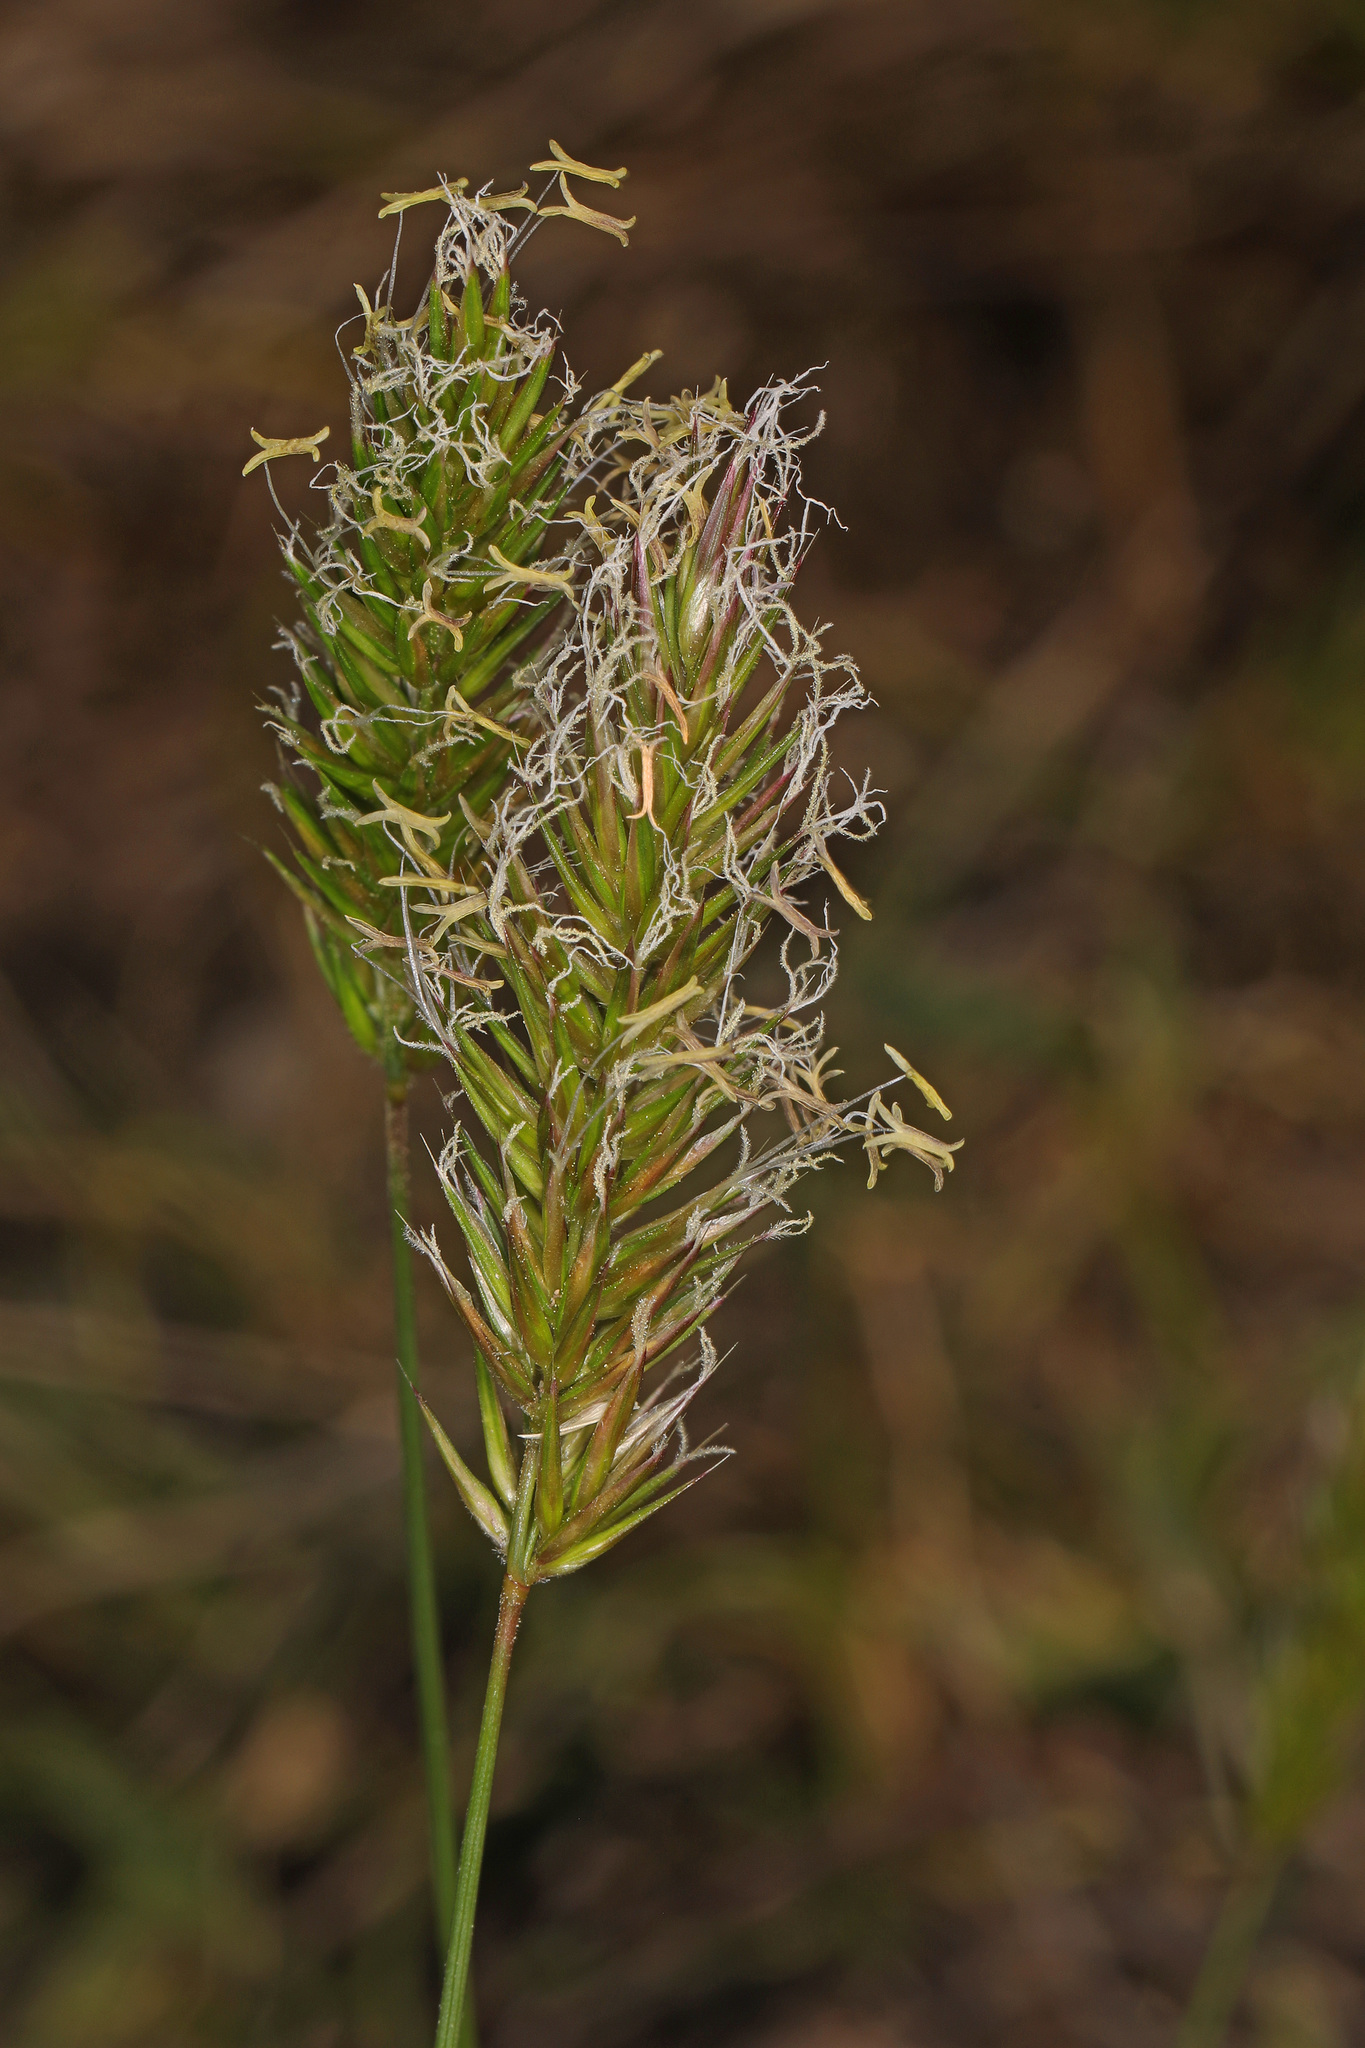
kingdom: Plantae
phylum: Tracheophyta
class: Liliopsida
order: Poales
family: Poaceae
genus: Anthoxanthum
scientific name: Anthoxanthum odoratum
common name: Sweet vernalgrass
